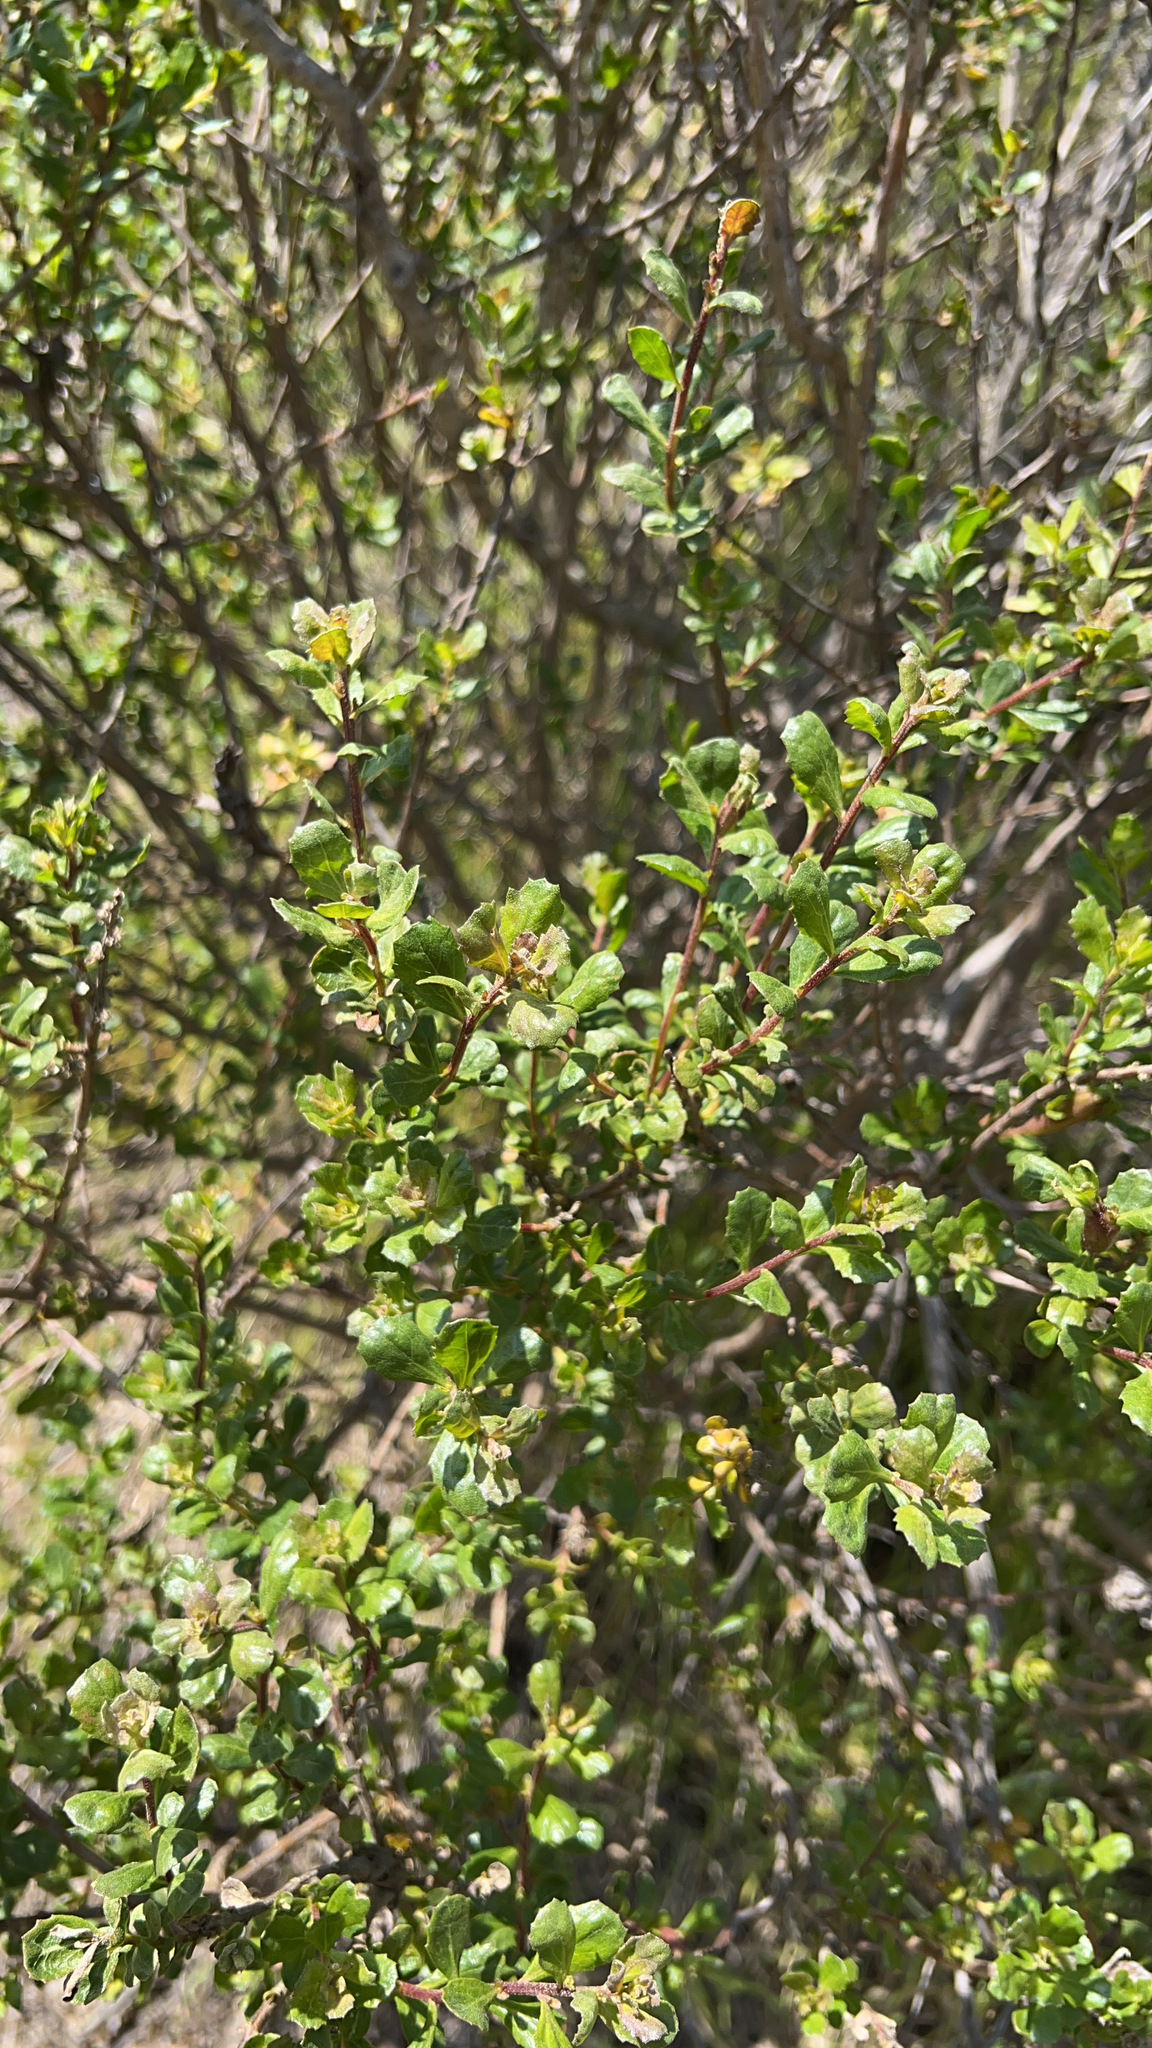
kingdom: Plantae
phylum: Tracheophyta
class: Magnoliopsida
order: Asterales
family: Asteraceae
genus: Baccharis
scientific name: Baccharis pilularis
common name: Coyotebrush
